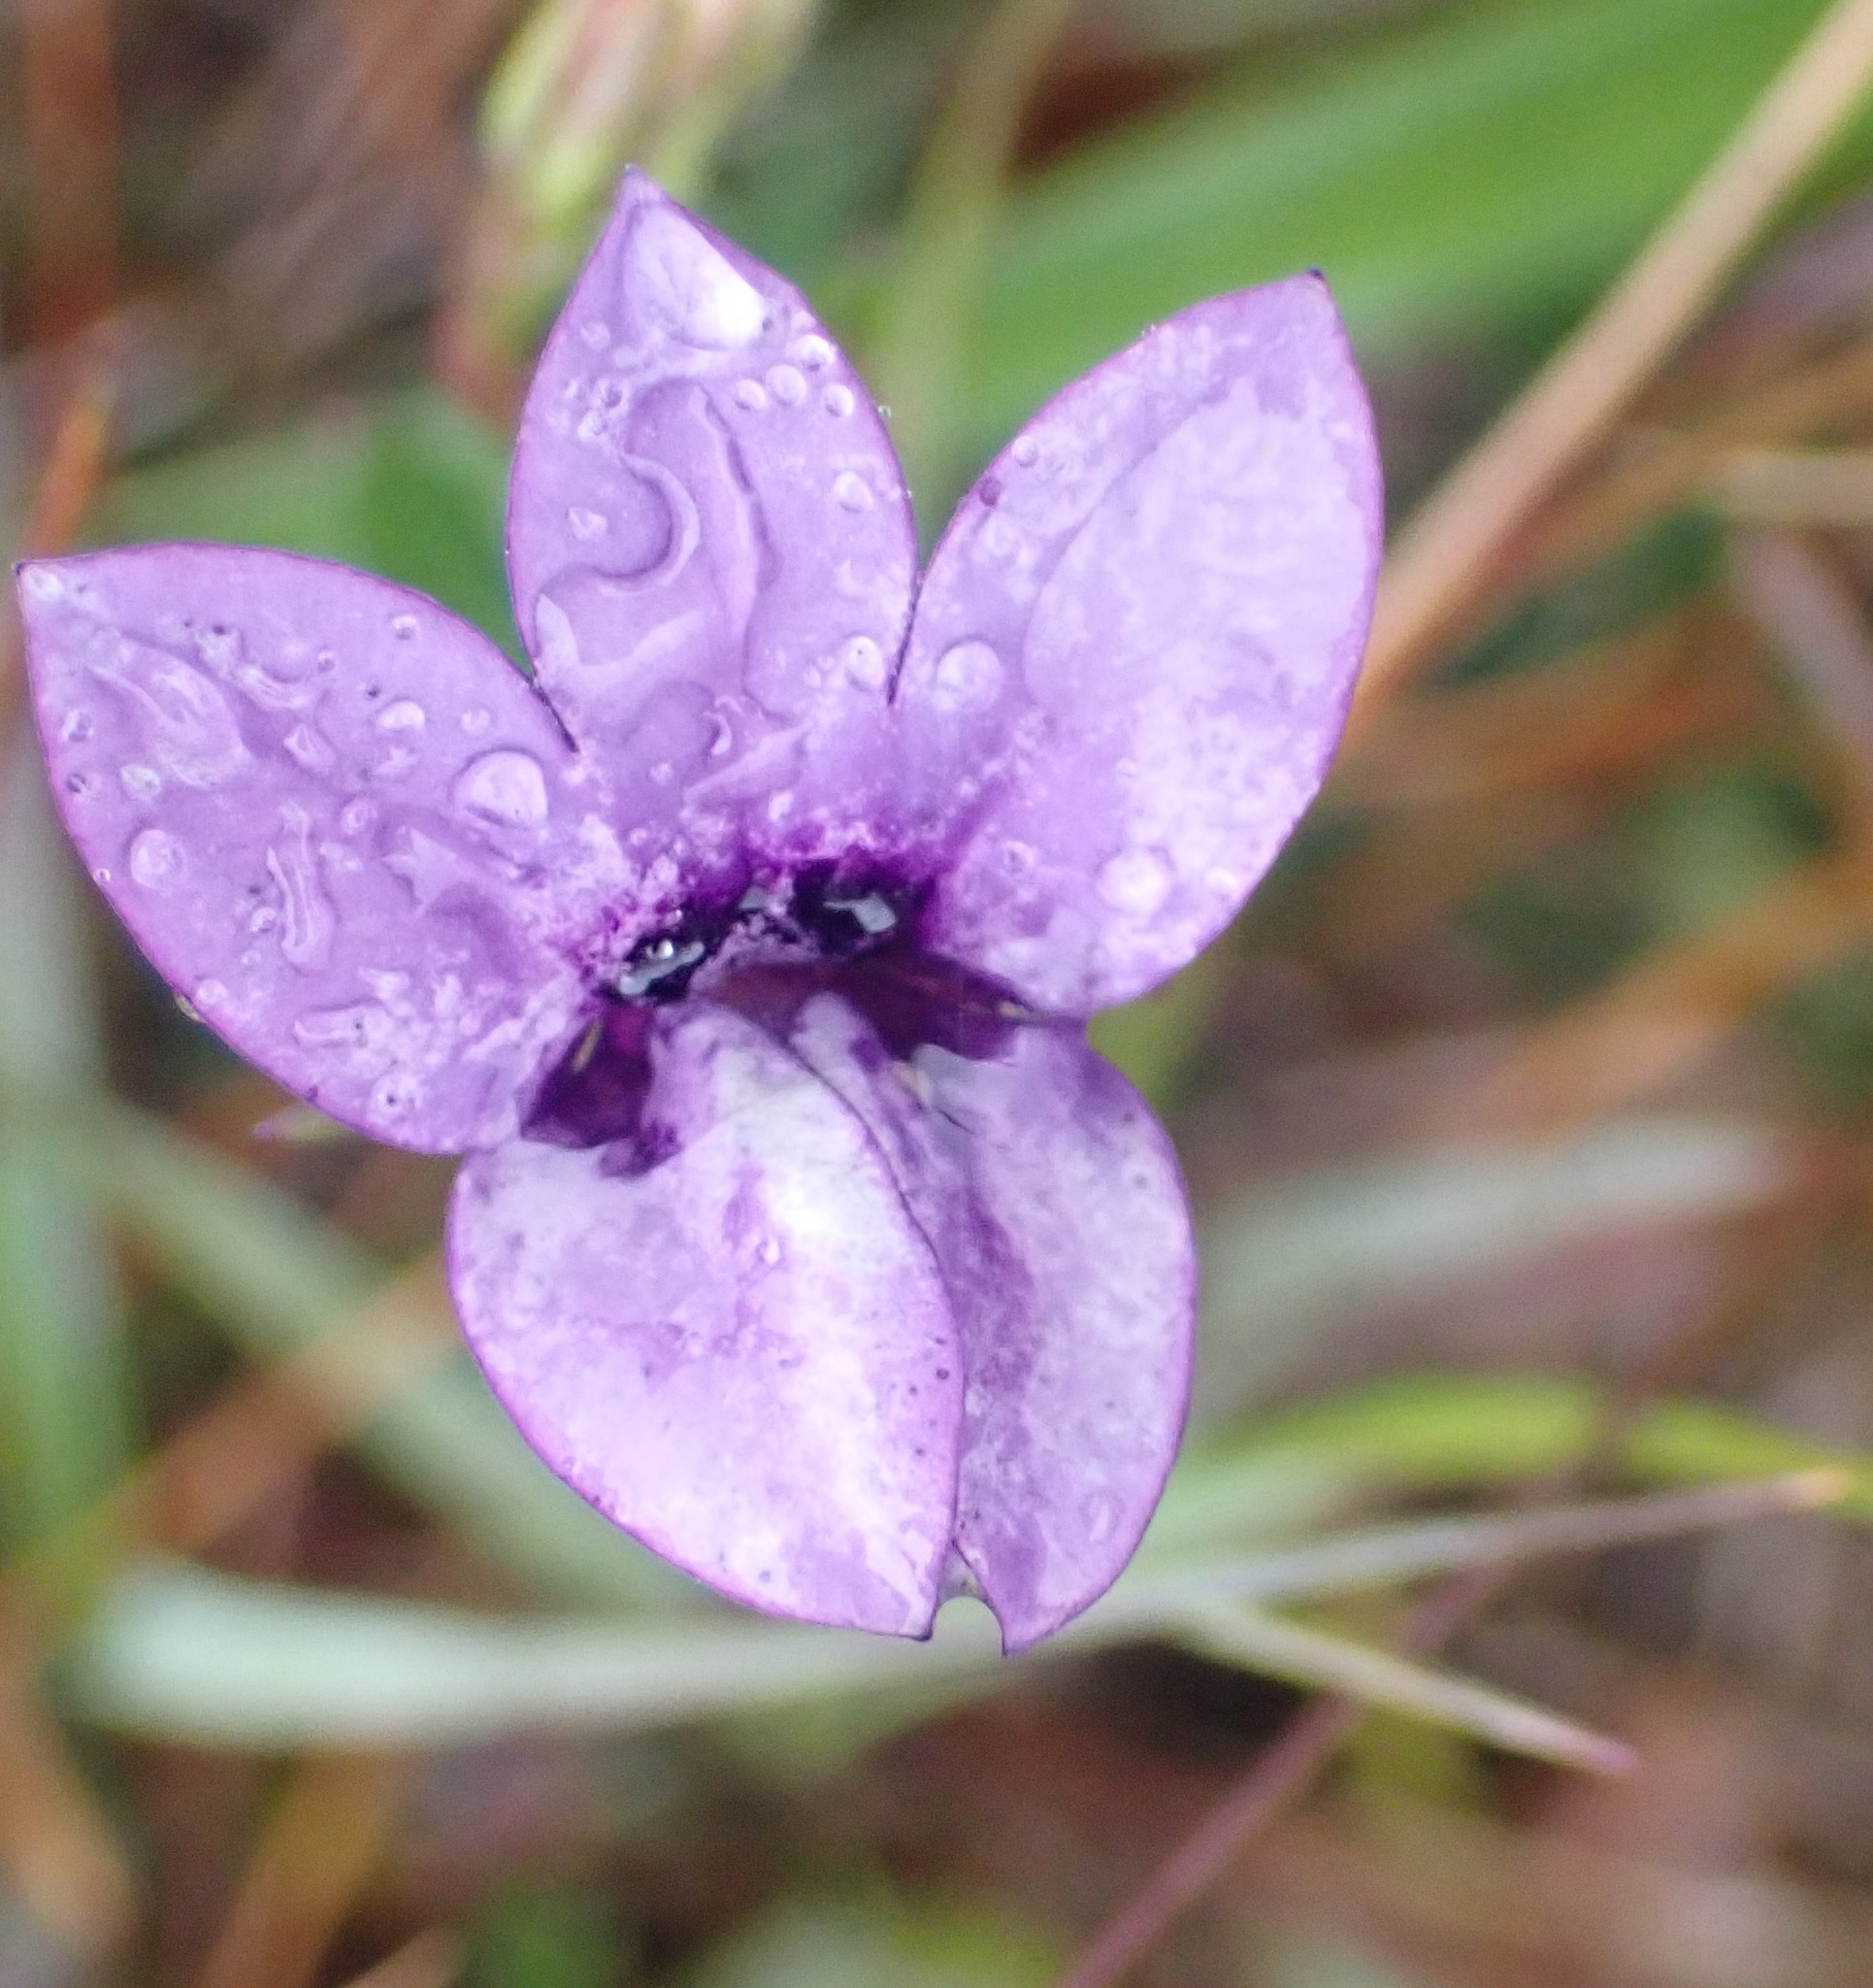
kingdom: Plantae
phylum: Tracheophyta
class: Magnoliopsida
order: Asterales
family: Campanulaceae
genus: Monopsis
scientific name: Monopsis unidentata
